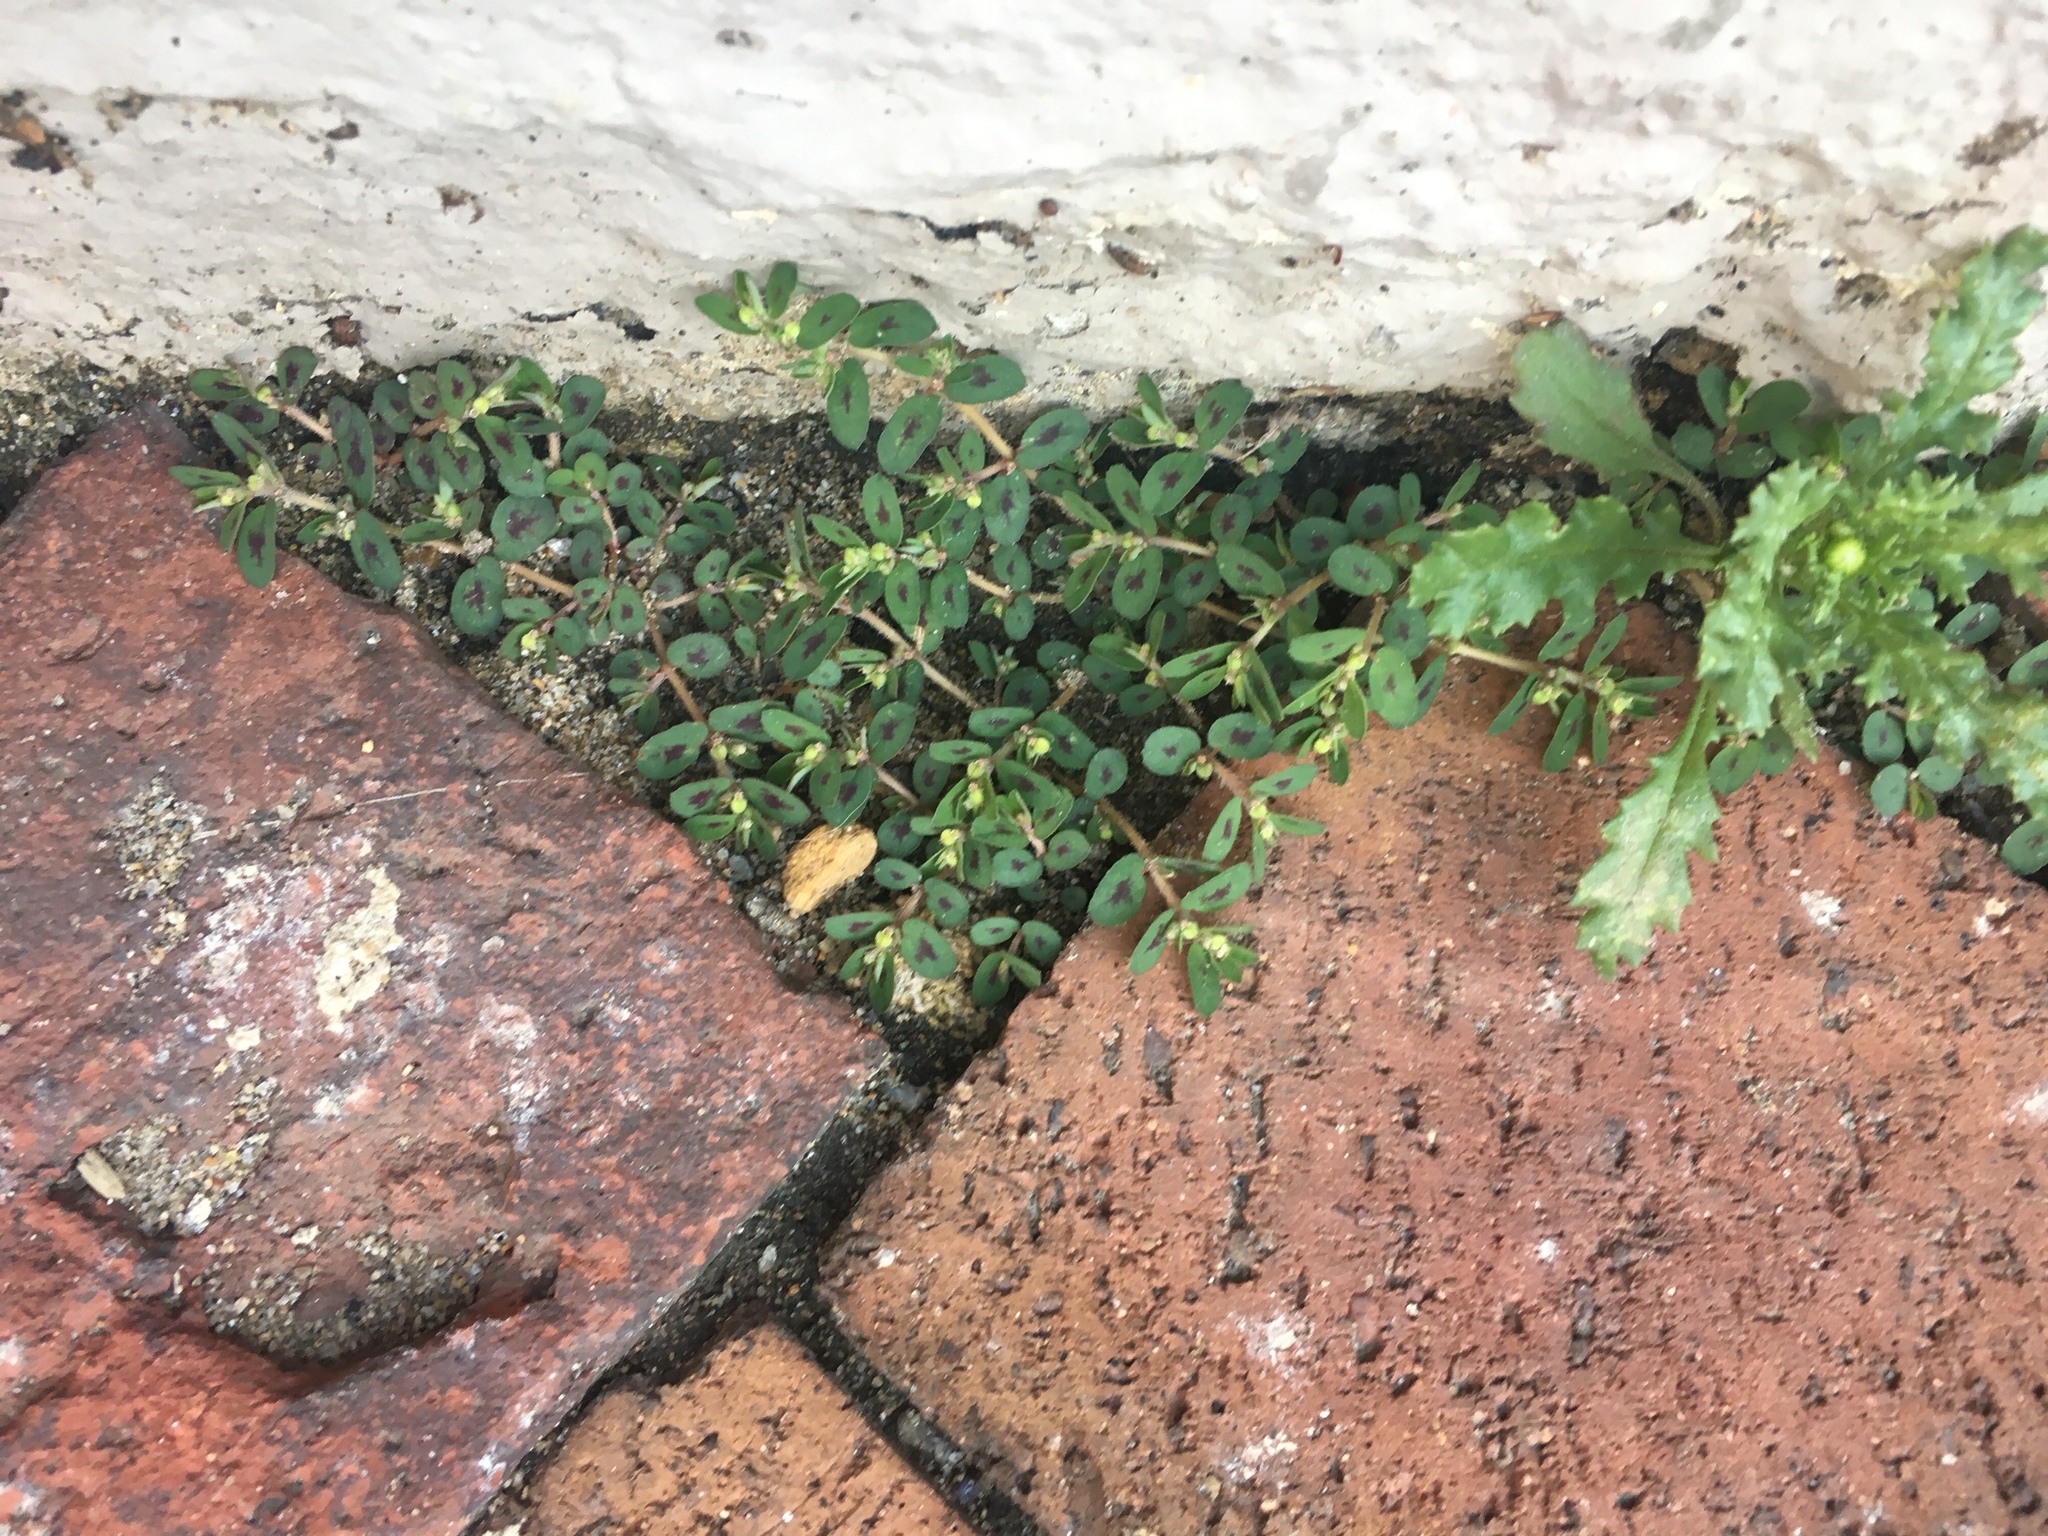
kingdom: Plantae
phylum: Tracheophyta
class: Magnoliopsida
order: Malpighiales
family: Euphorbiaceae
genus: Euphorbia
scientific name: Euphorbia maculata
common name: Spotted spurge
